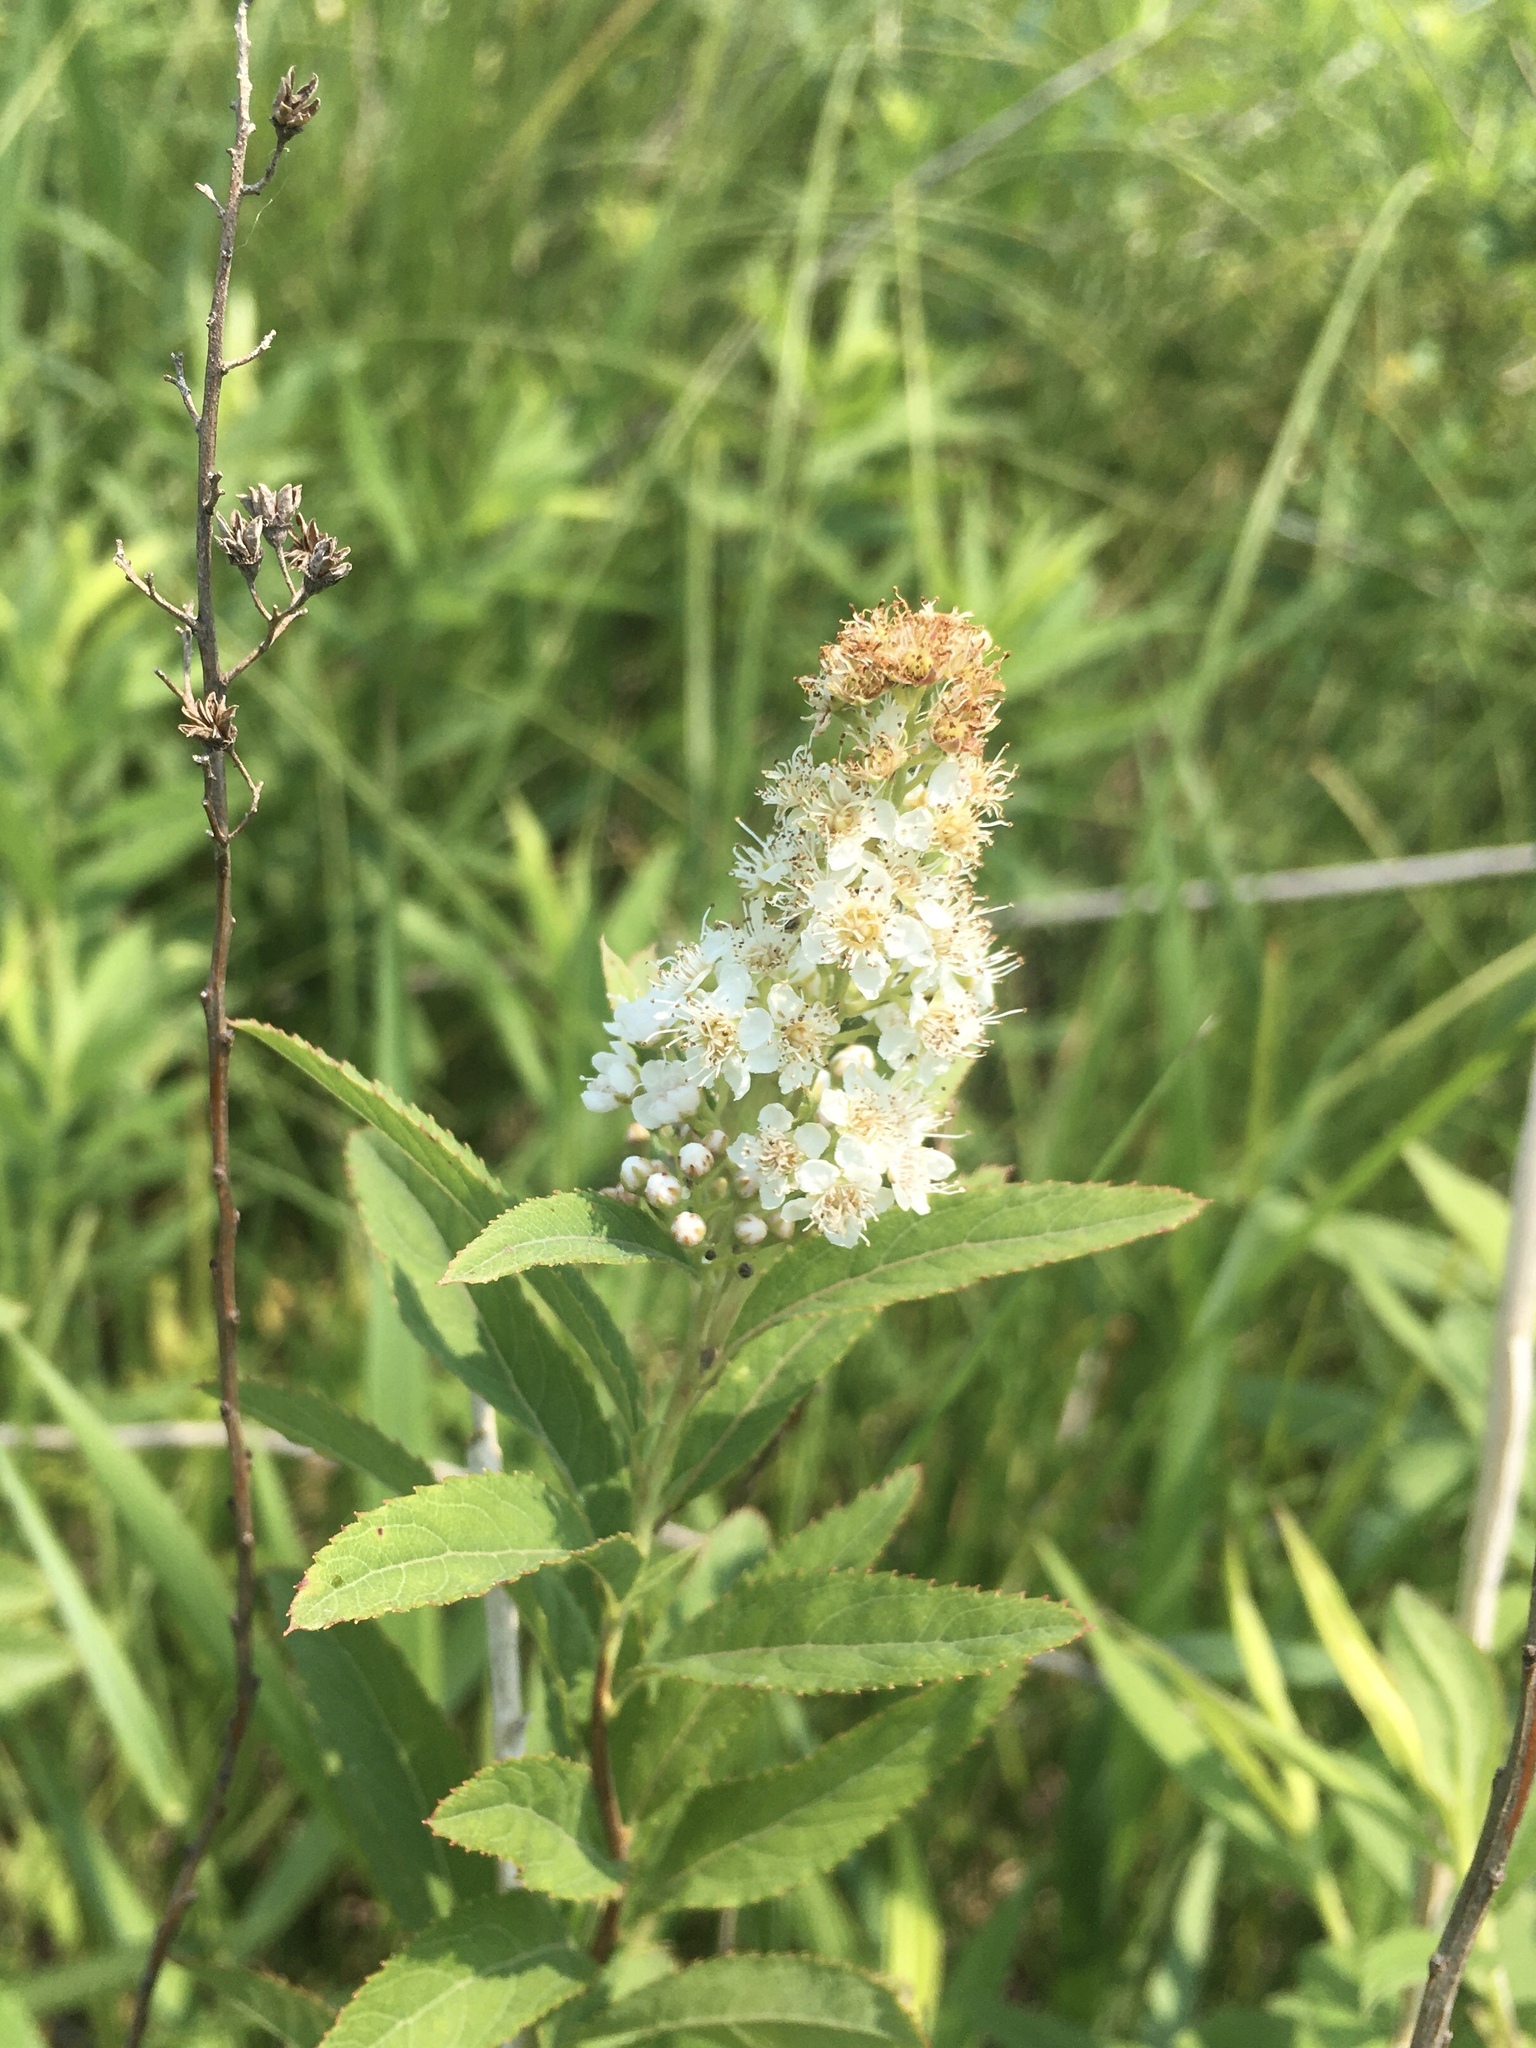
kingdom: Plantae
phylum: Tracheophyta
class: Magnoliopsida
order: Rosales
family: Rosaceae
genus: Spiraea
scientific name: Spiraea alba
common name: Pale bridewort
